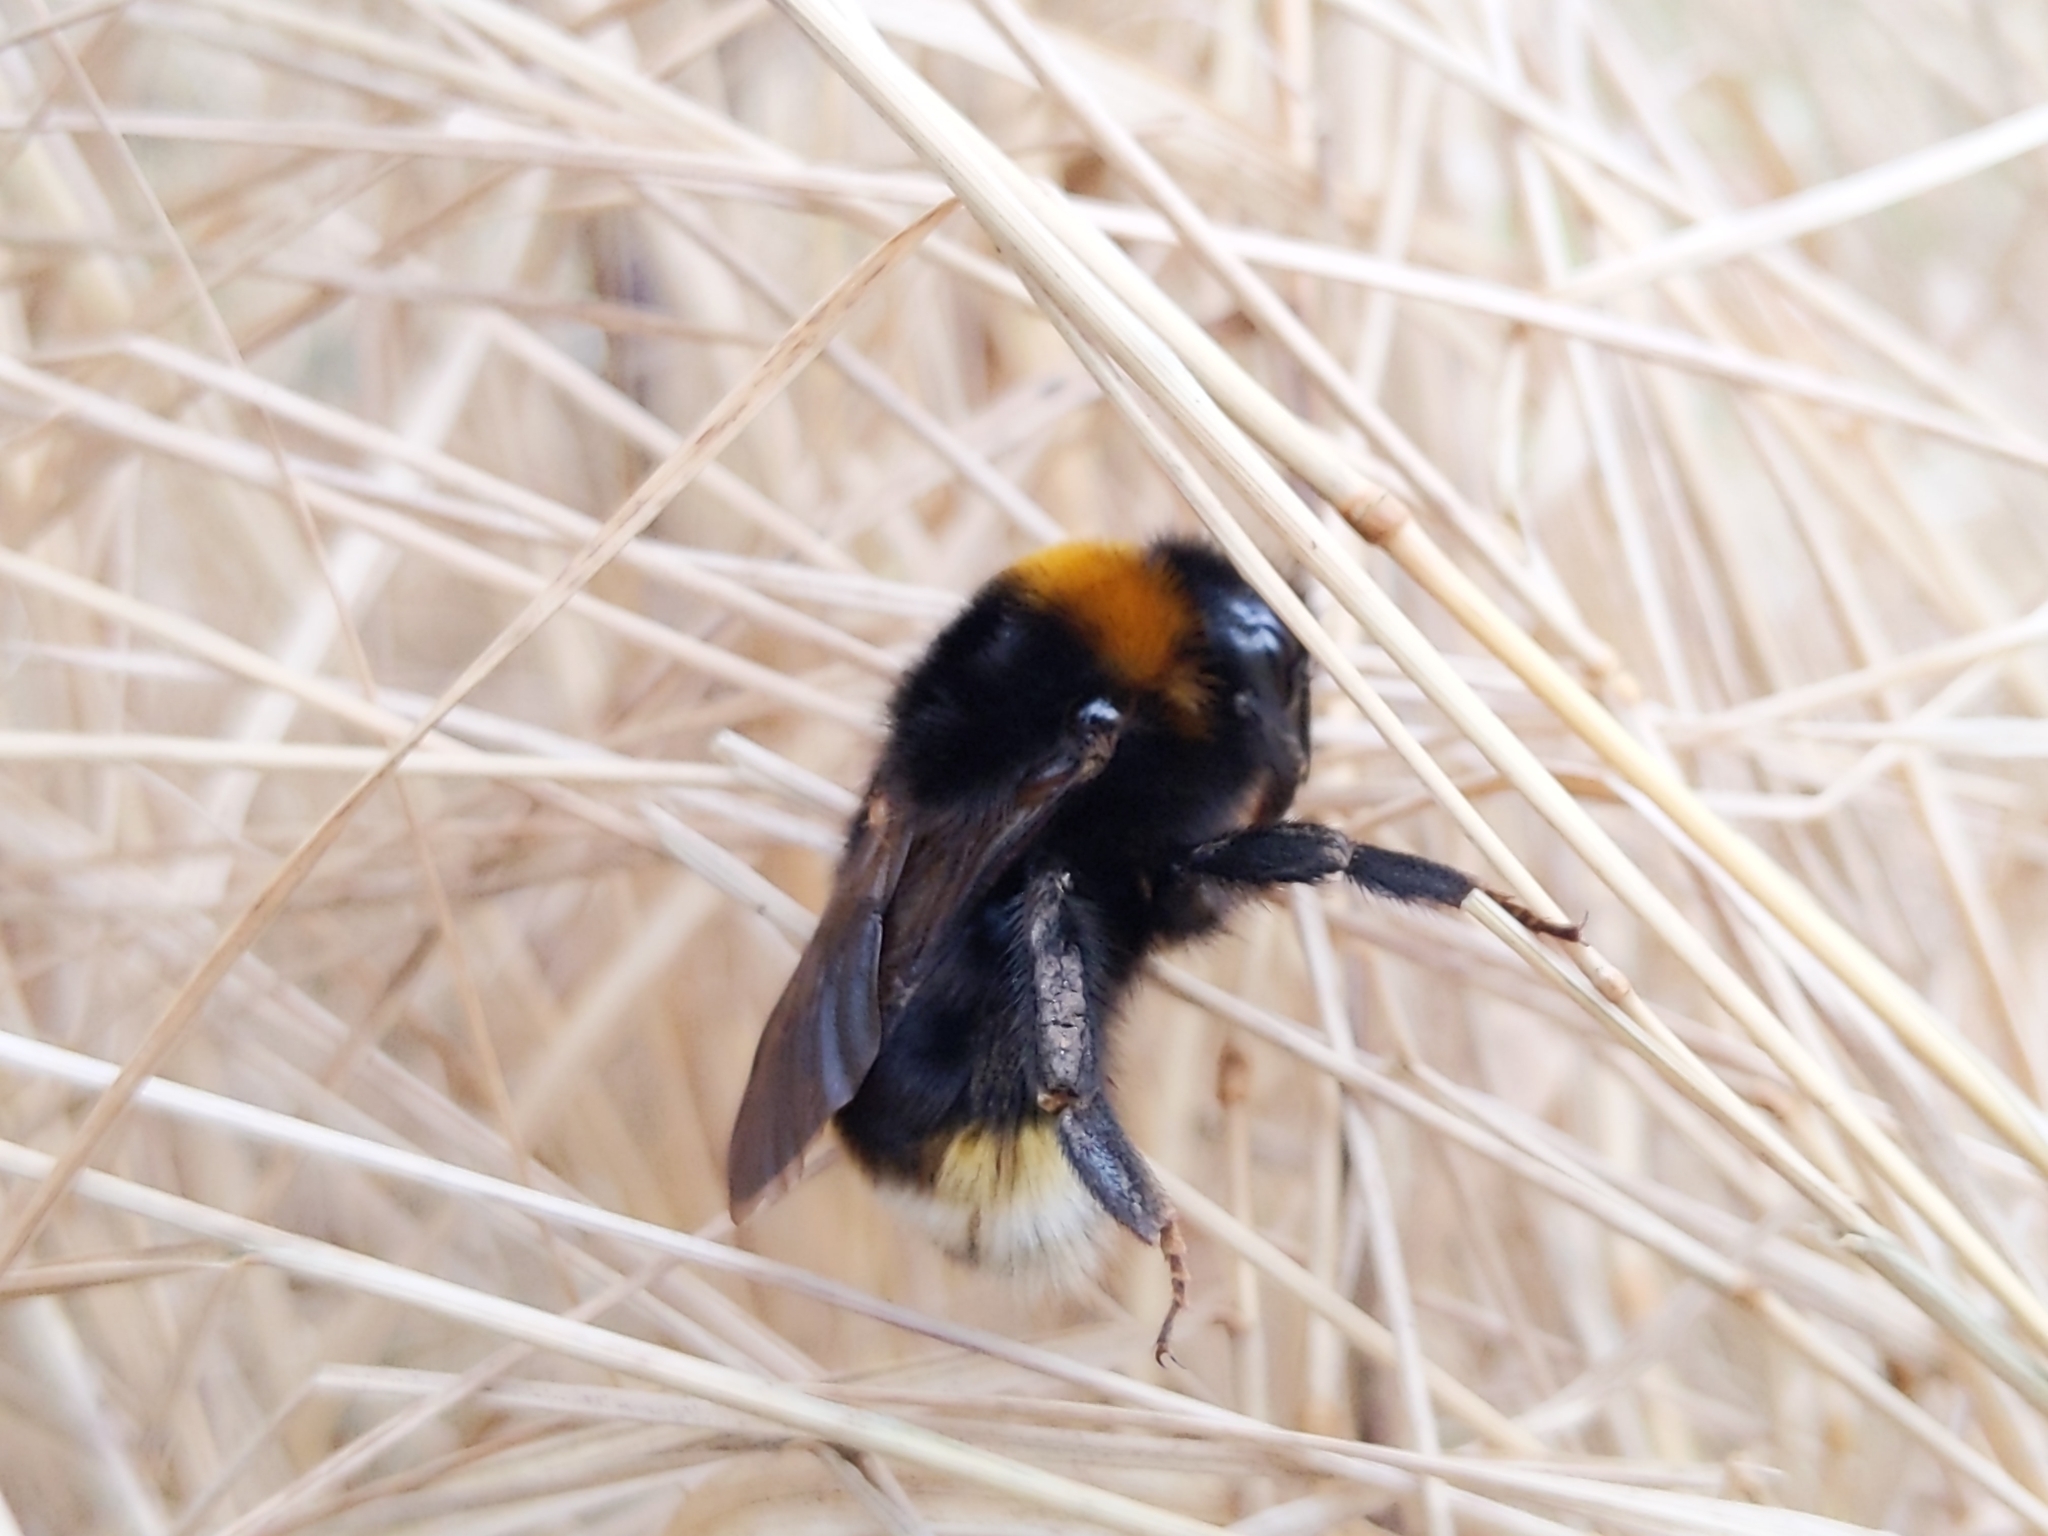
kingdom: Animalia
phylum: Arthropoda
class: Insecta
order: Hymenoptera
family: Apidae
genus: Bombus
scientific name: Bombus vestalis
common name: Vestal cuckoo bee
